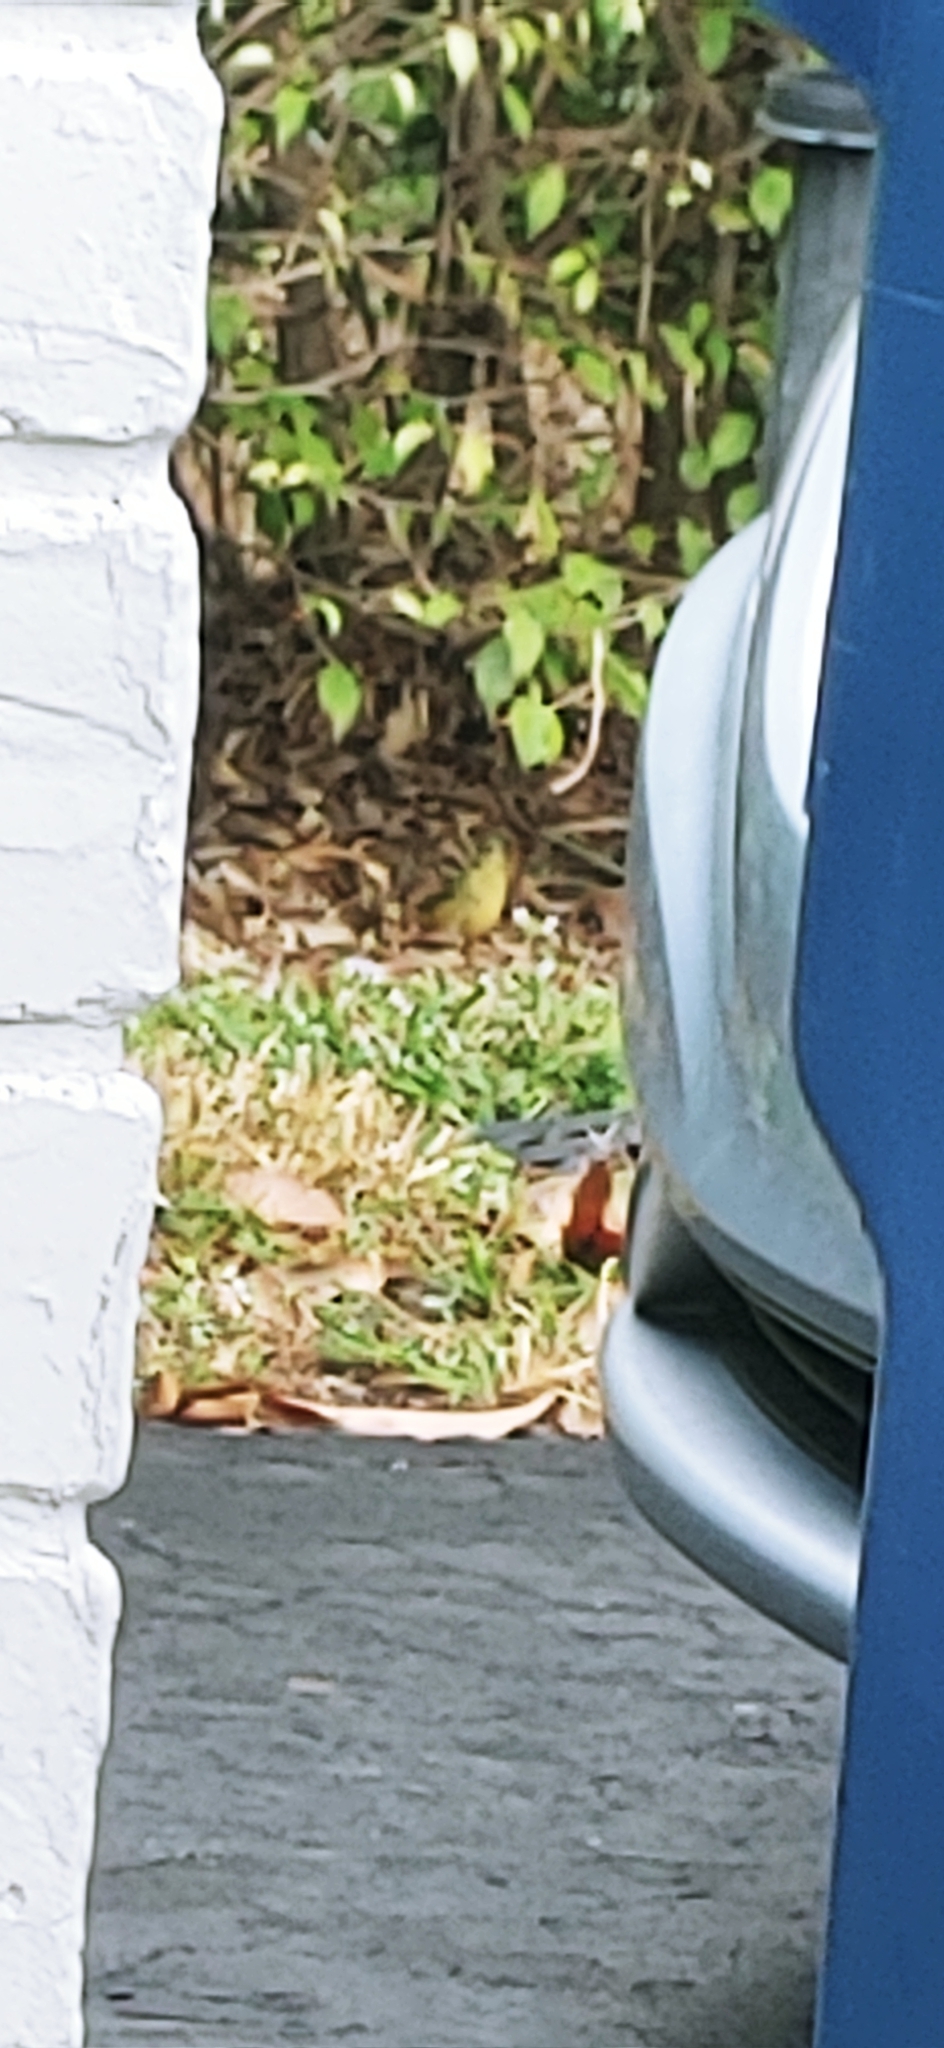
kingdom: Animalia
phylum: Chordata
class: Aves
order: Passeriformes
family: Cardinalidae
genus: Passerina
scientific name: Passerina ciris
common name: Painted bunting
